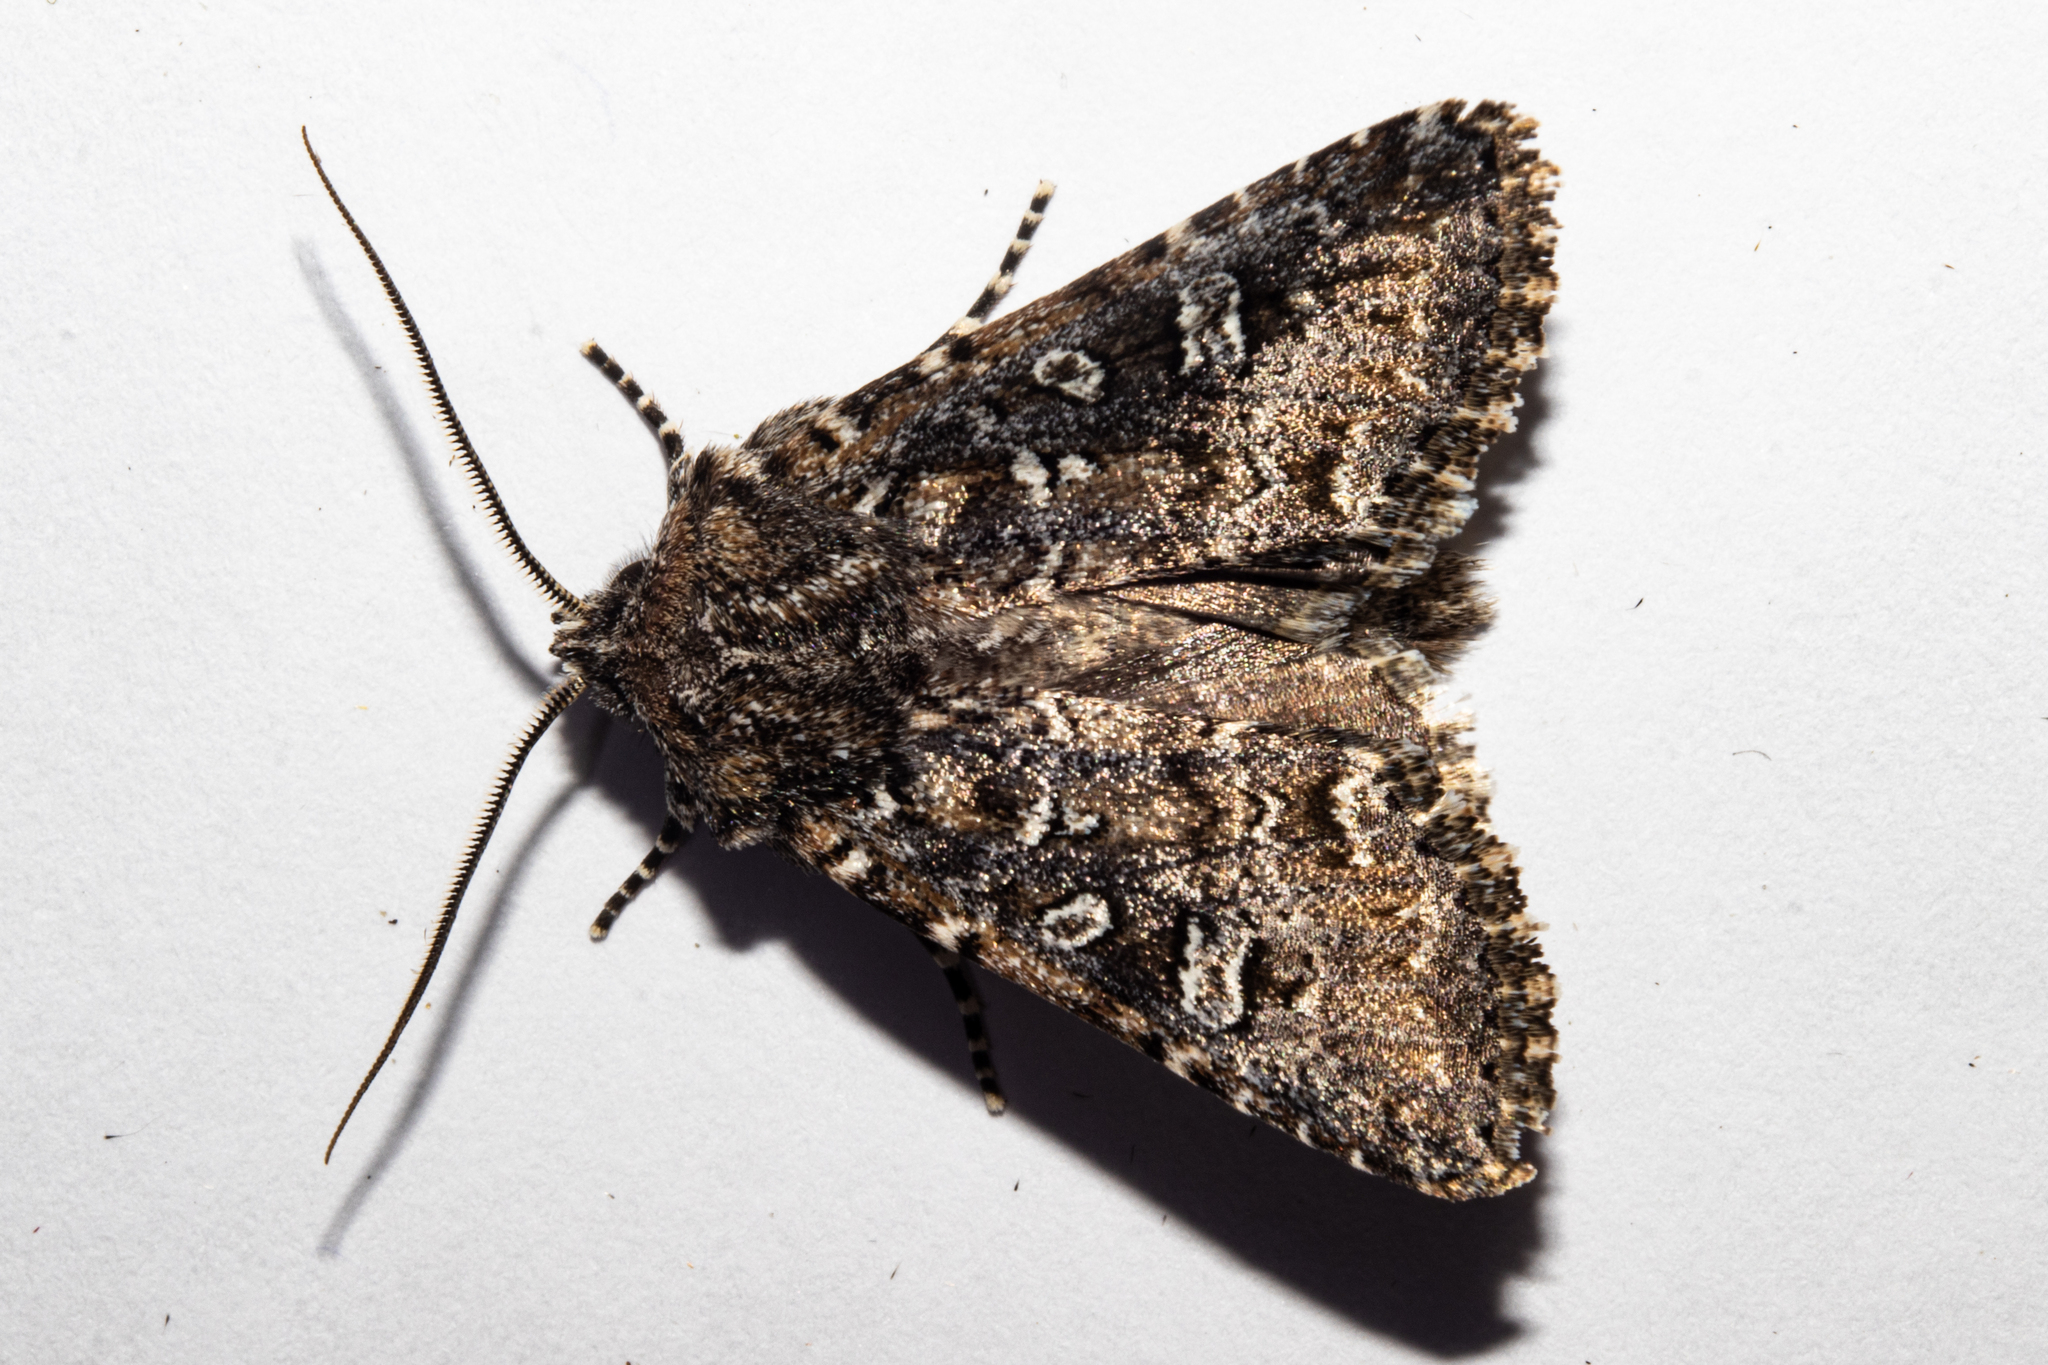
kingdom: Animalia
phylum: Arthropoda
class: Insecta
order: Lepidoptera
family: Noctuidae
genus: Ichneutica
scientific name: Ichneutica lithias
